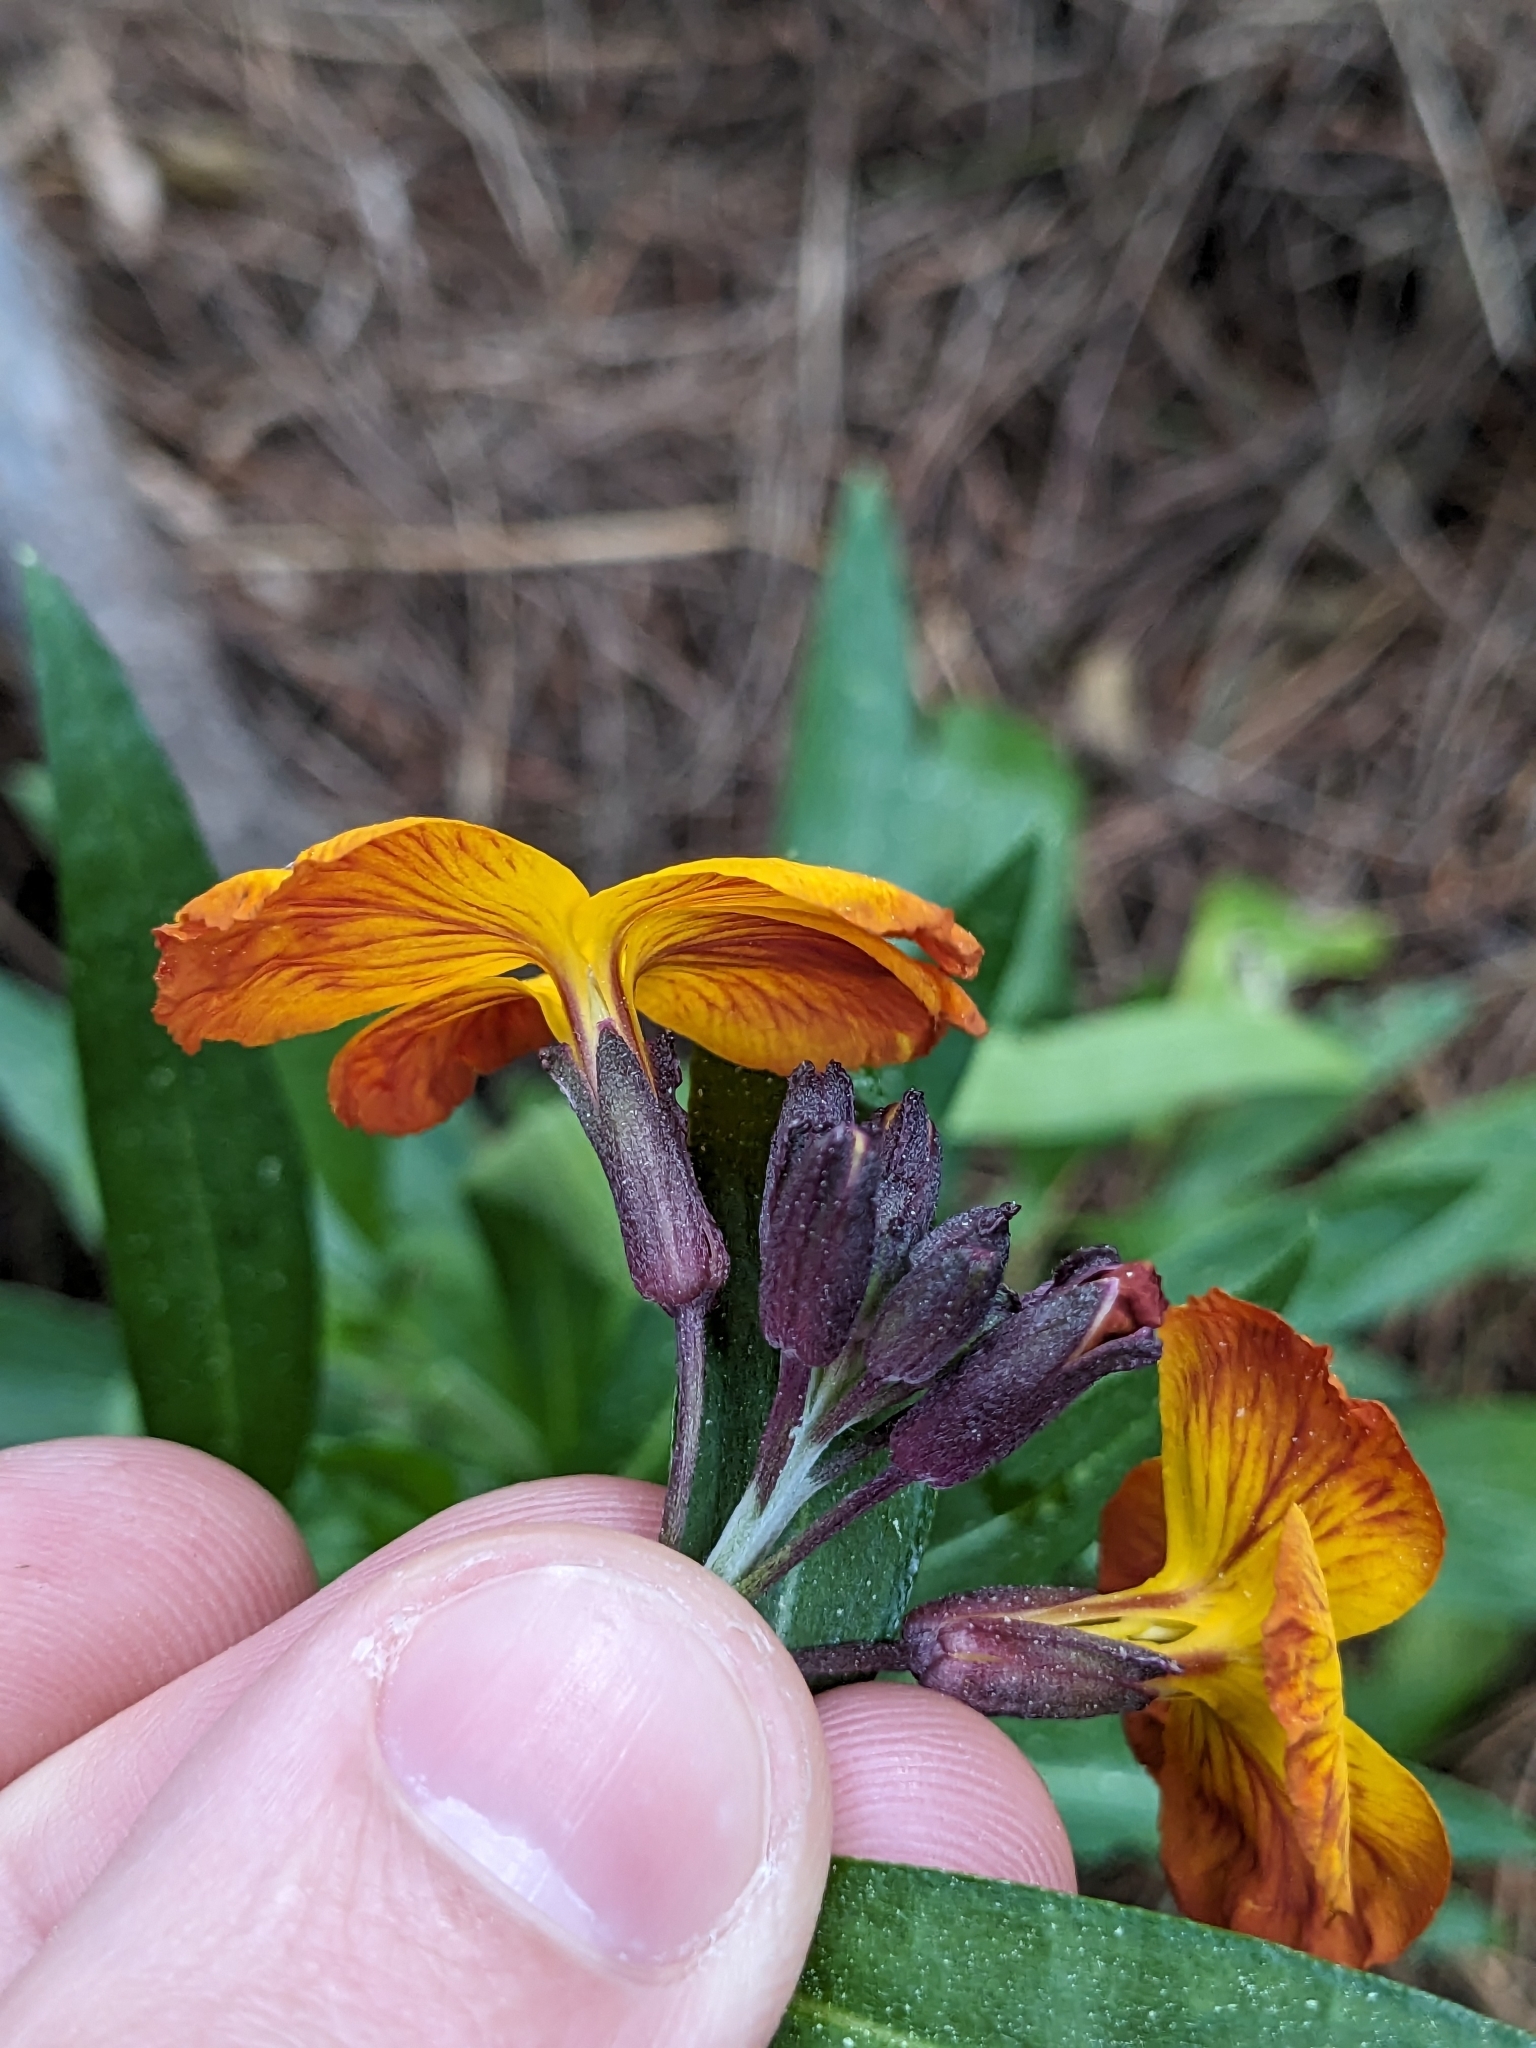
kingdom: Plantae
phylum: Tracheophyta
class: Magnoliopsida
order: Brassicales
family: Brassicaceae
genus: Erysimum
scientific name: Erysimum cheiri
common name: Wallflower
